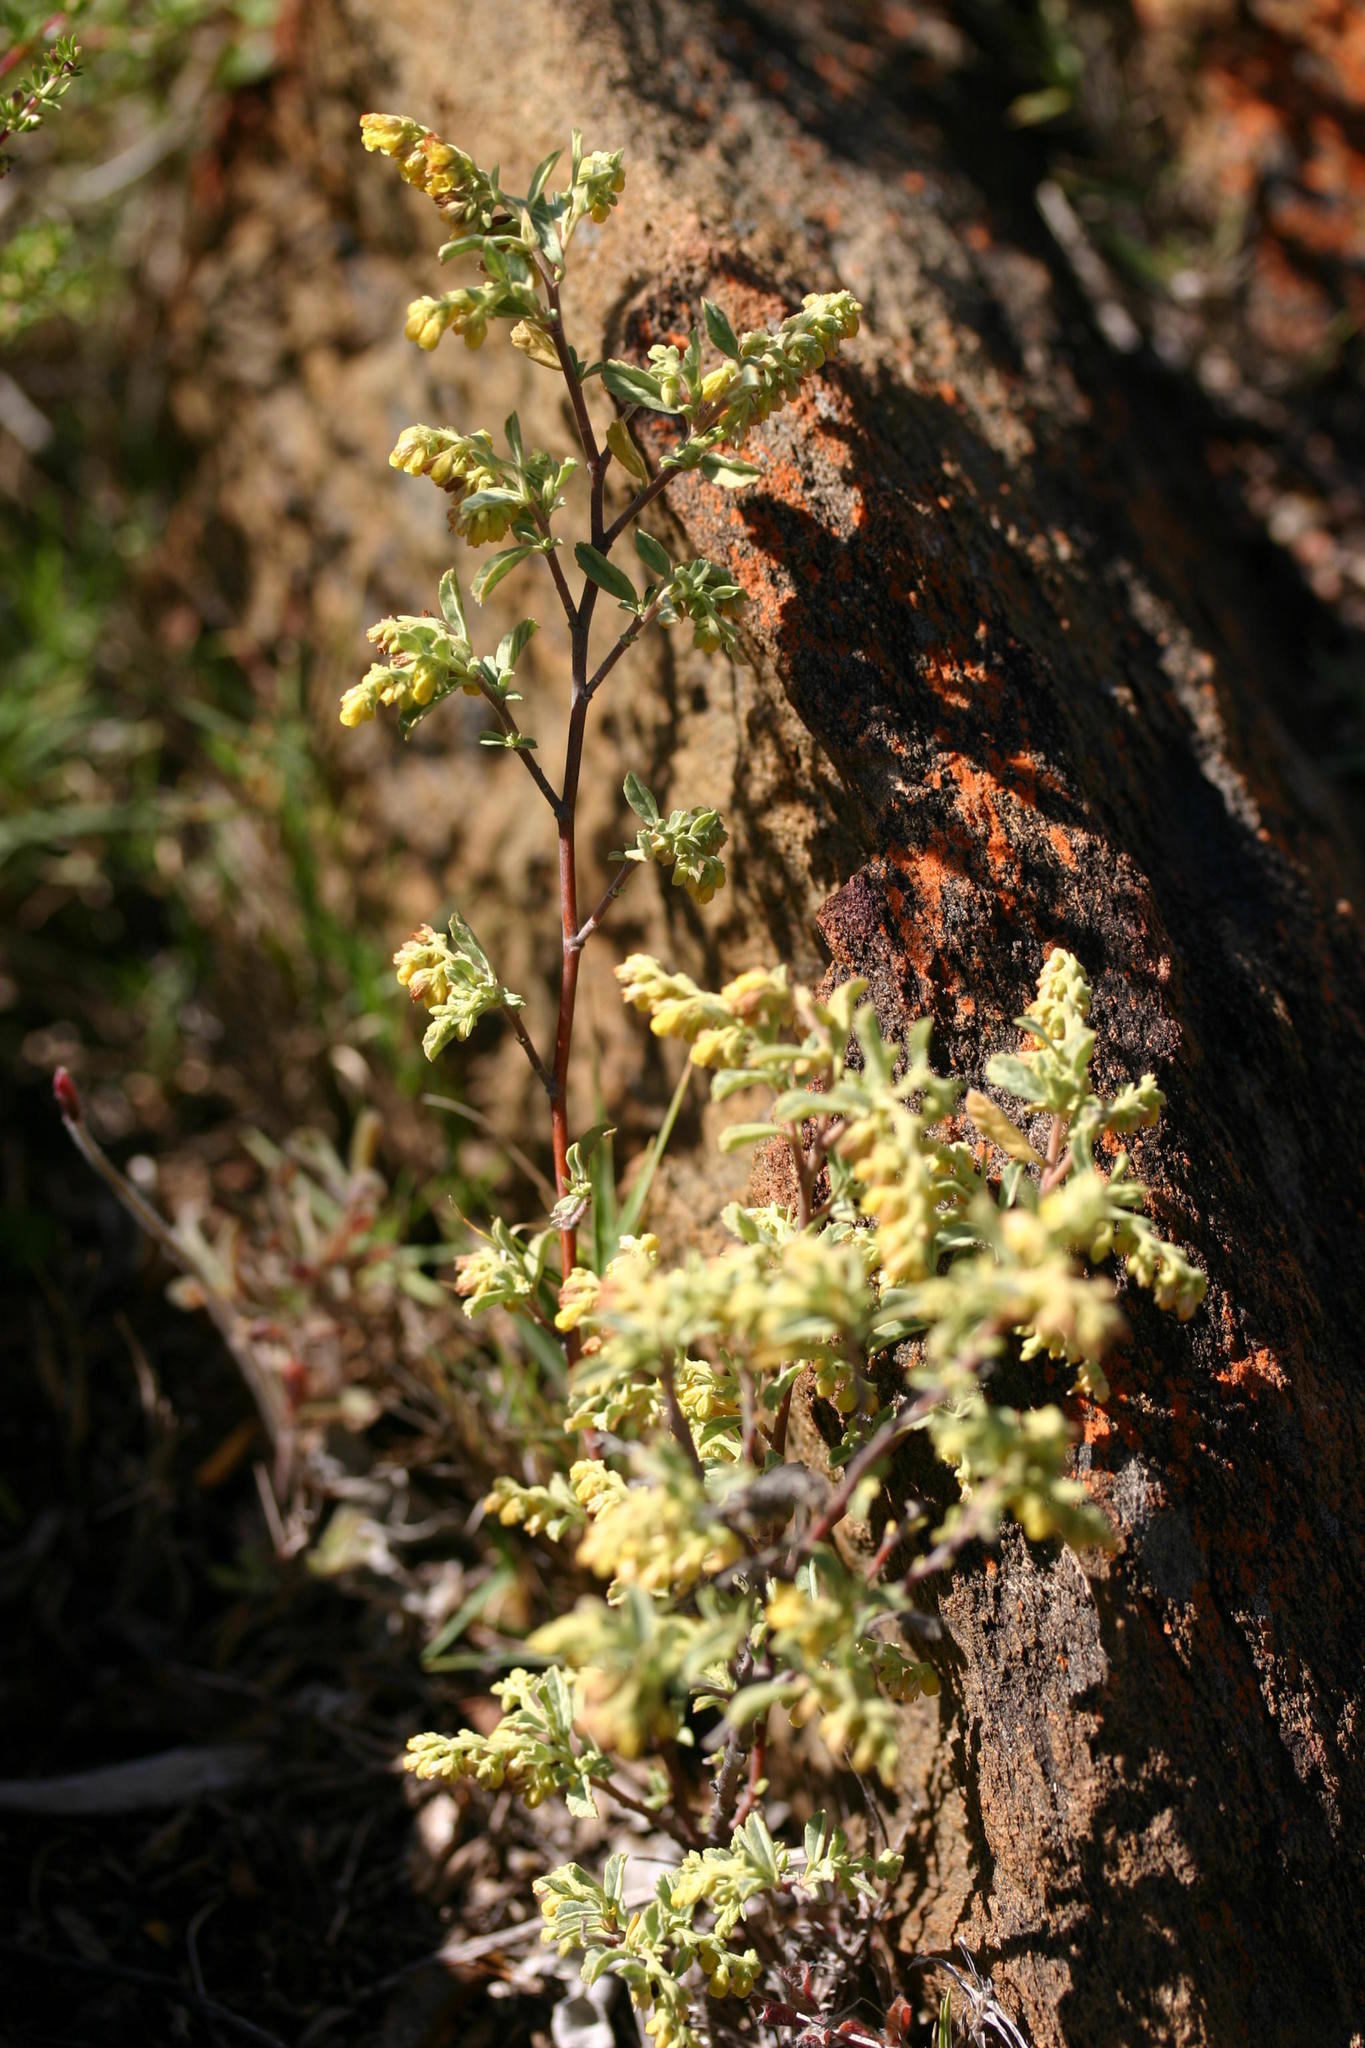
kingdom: Plantae
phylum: Tracheophyta
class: Magnoliopsida
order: Malvales
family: Malvaceae
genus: Hermannia
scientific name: Hermannia holosericea
